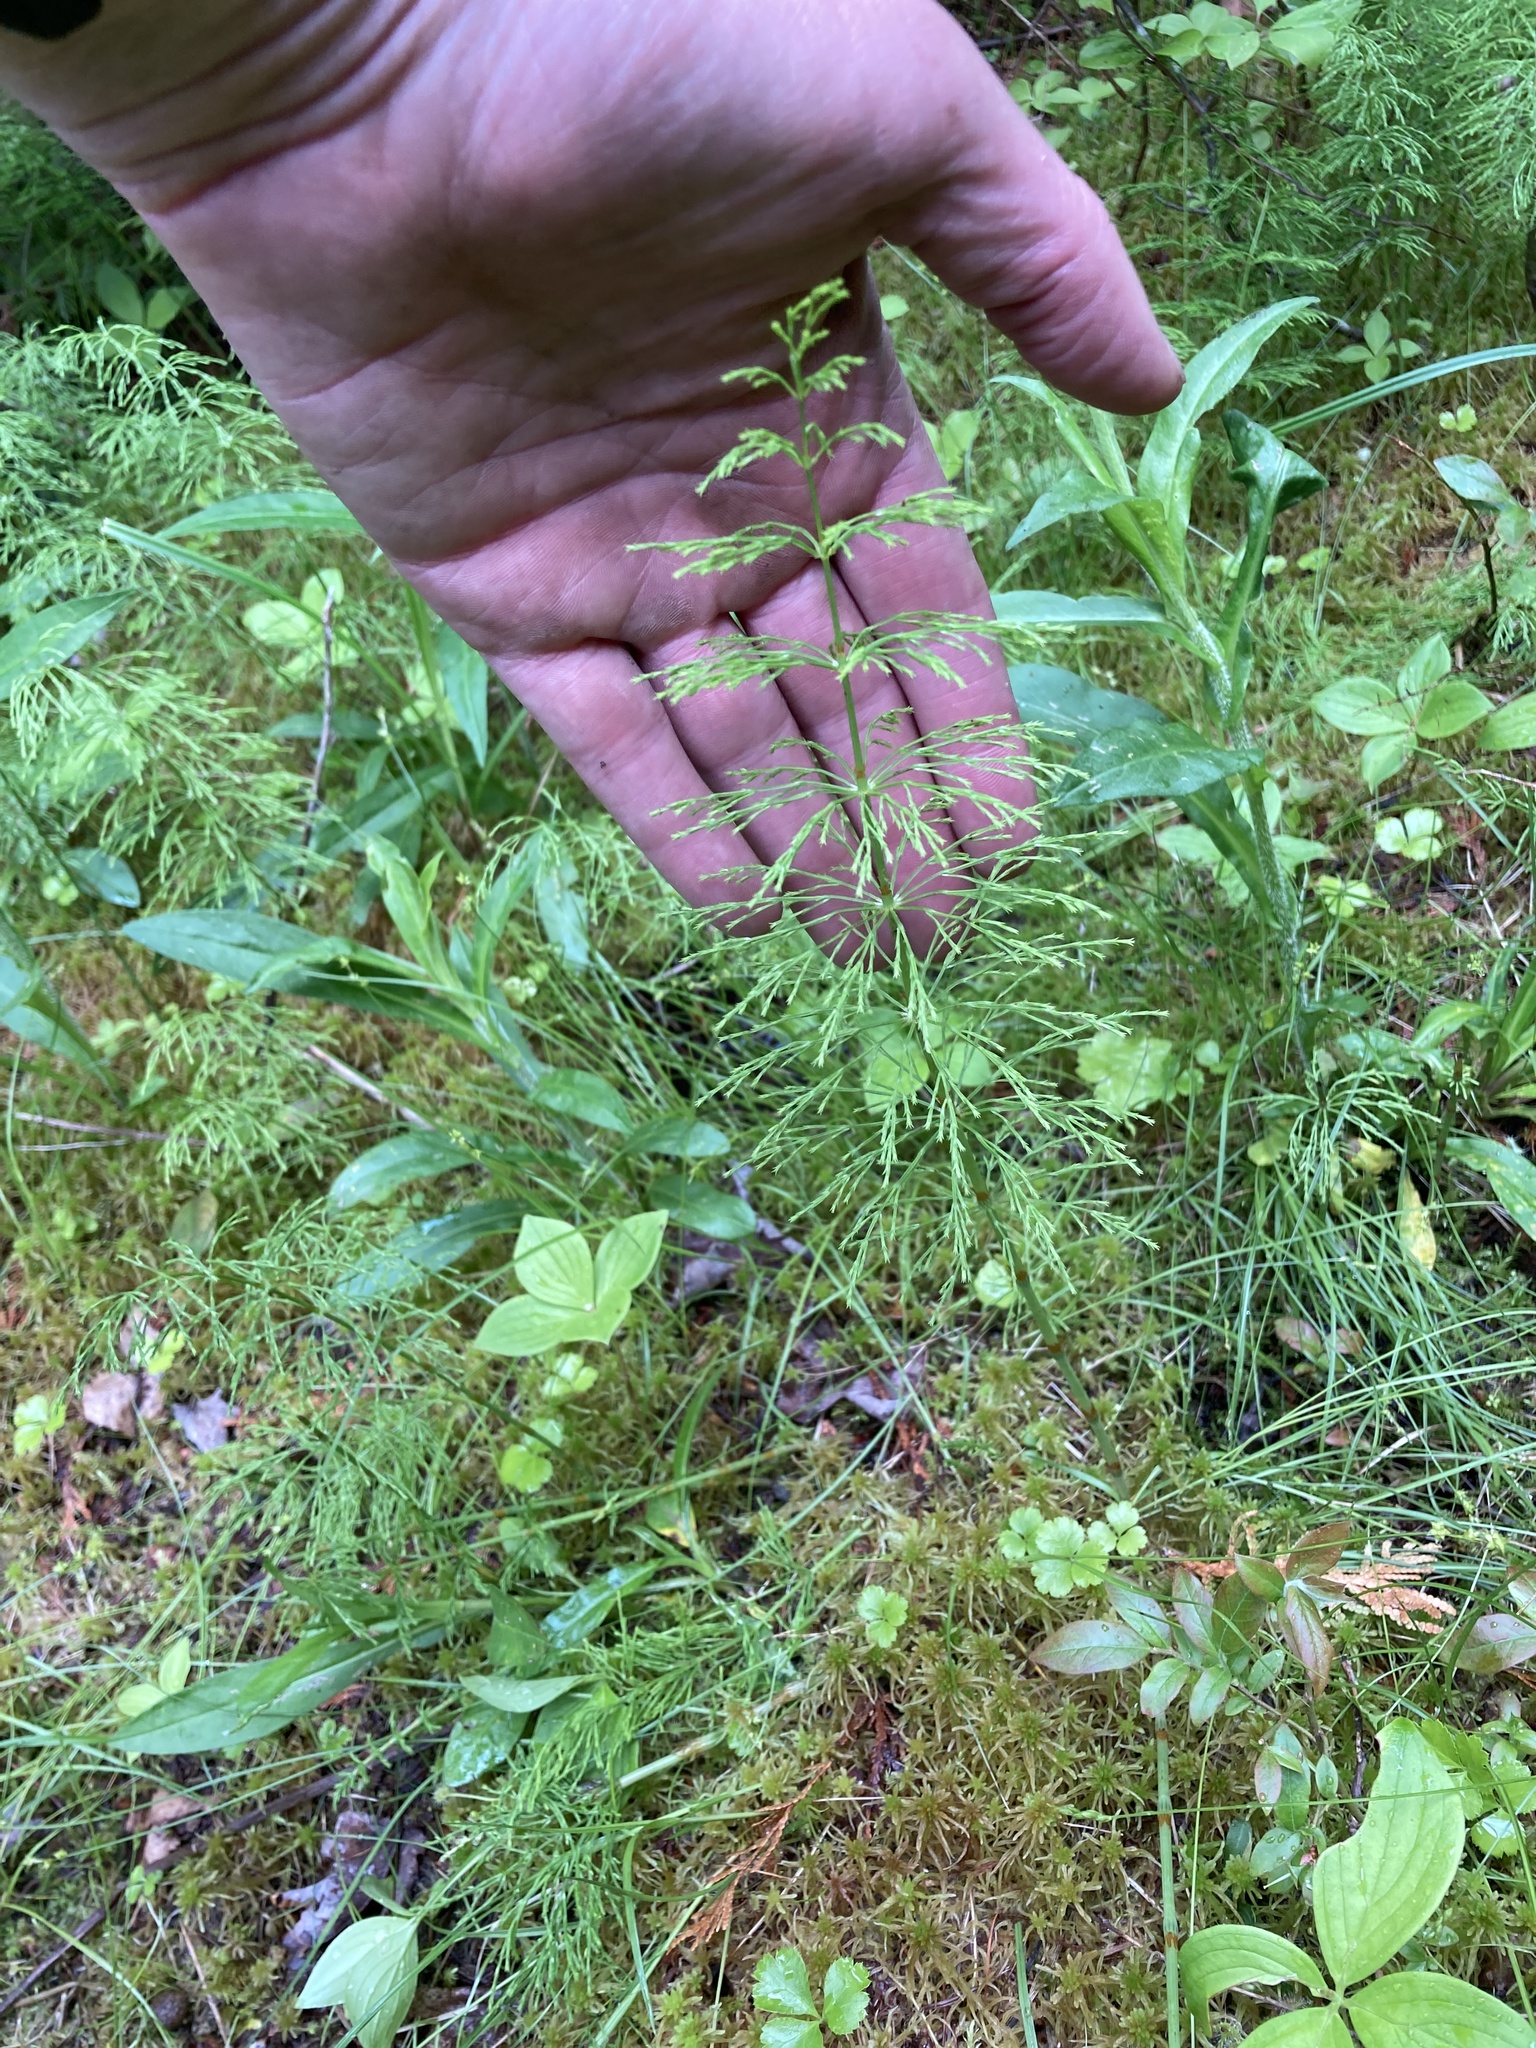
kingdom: Plantae
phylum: Tracheophyta
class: Polypodiopsida
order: Equisetales
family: Equisetaceae
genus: Equisetum
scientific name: Equisetum sylvaticum
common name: Wood horsetail
